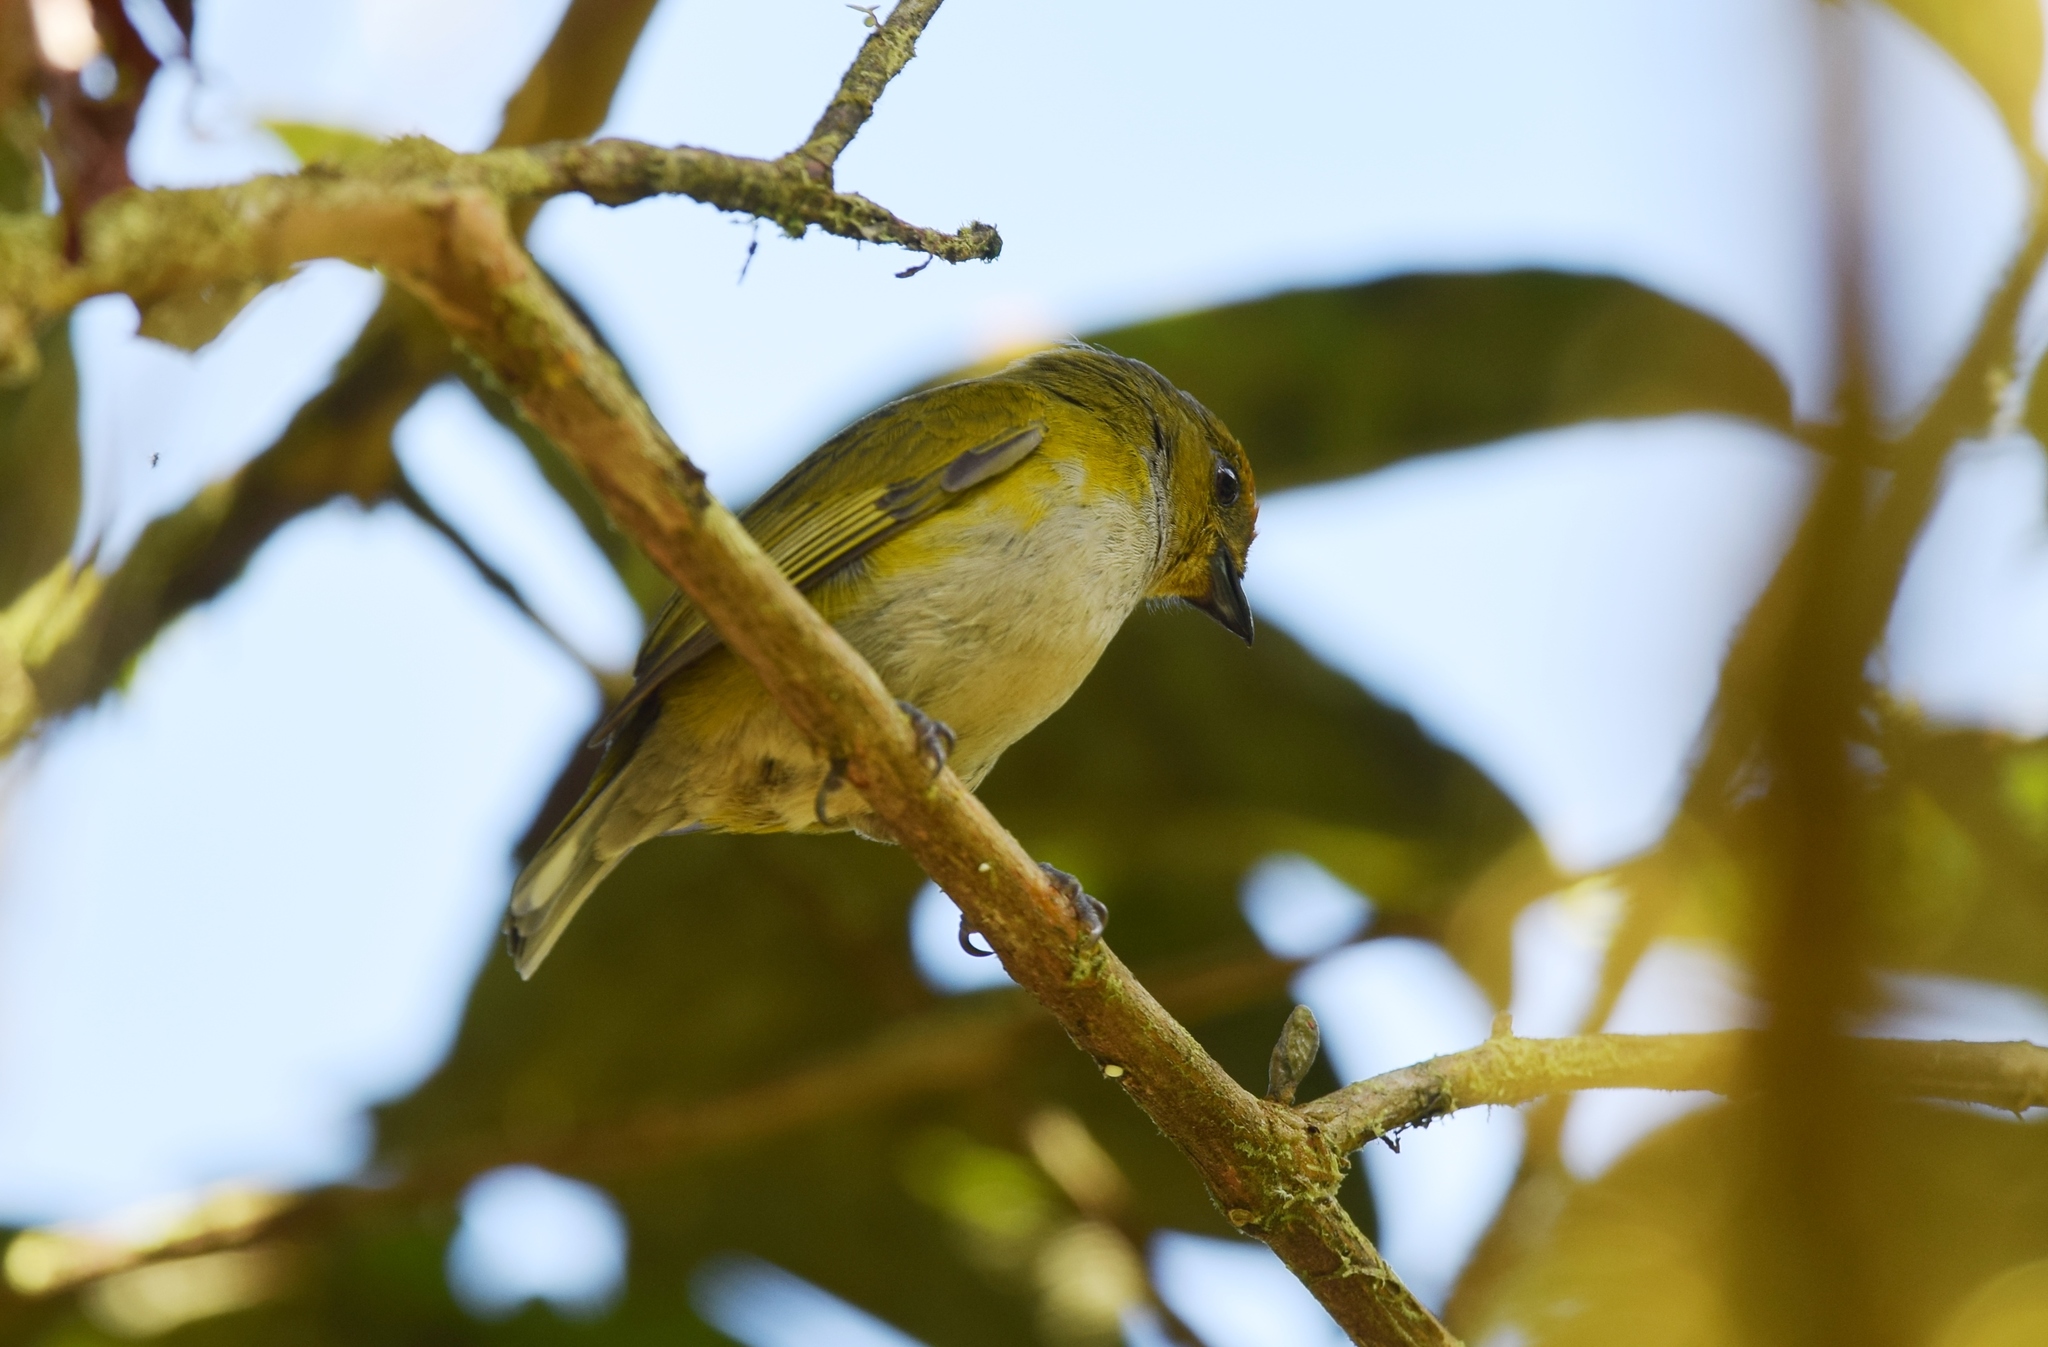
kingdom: Animalia
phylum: Chordata
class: Aves
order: Passeriformes
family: Fringillidae
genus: Euphonia
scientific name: Euphonia anneae
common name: Tawny-capped euphonia
